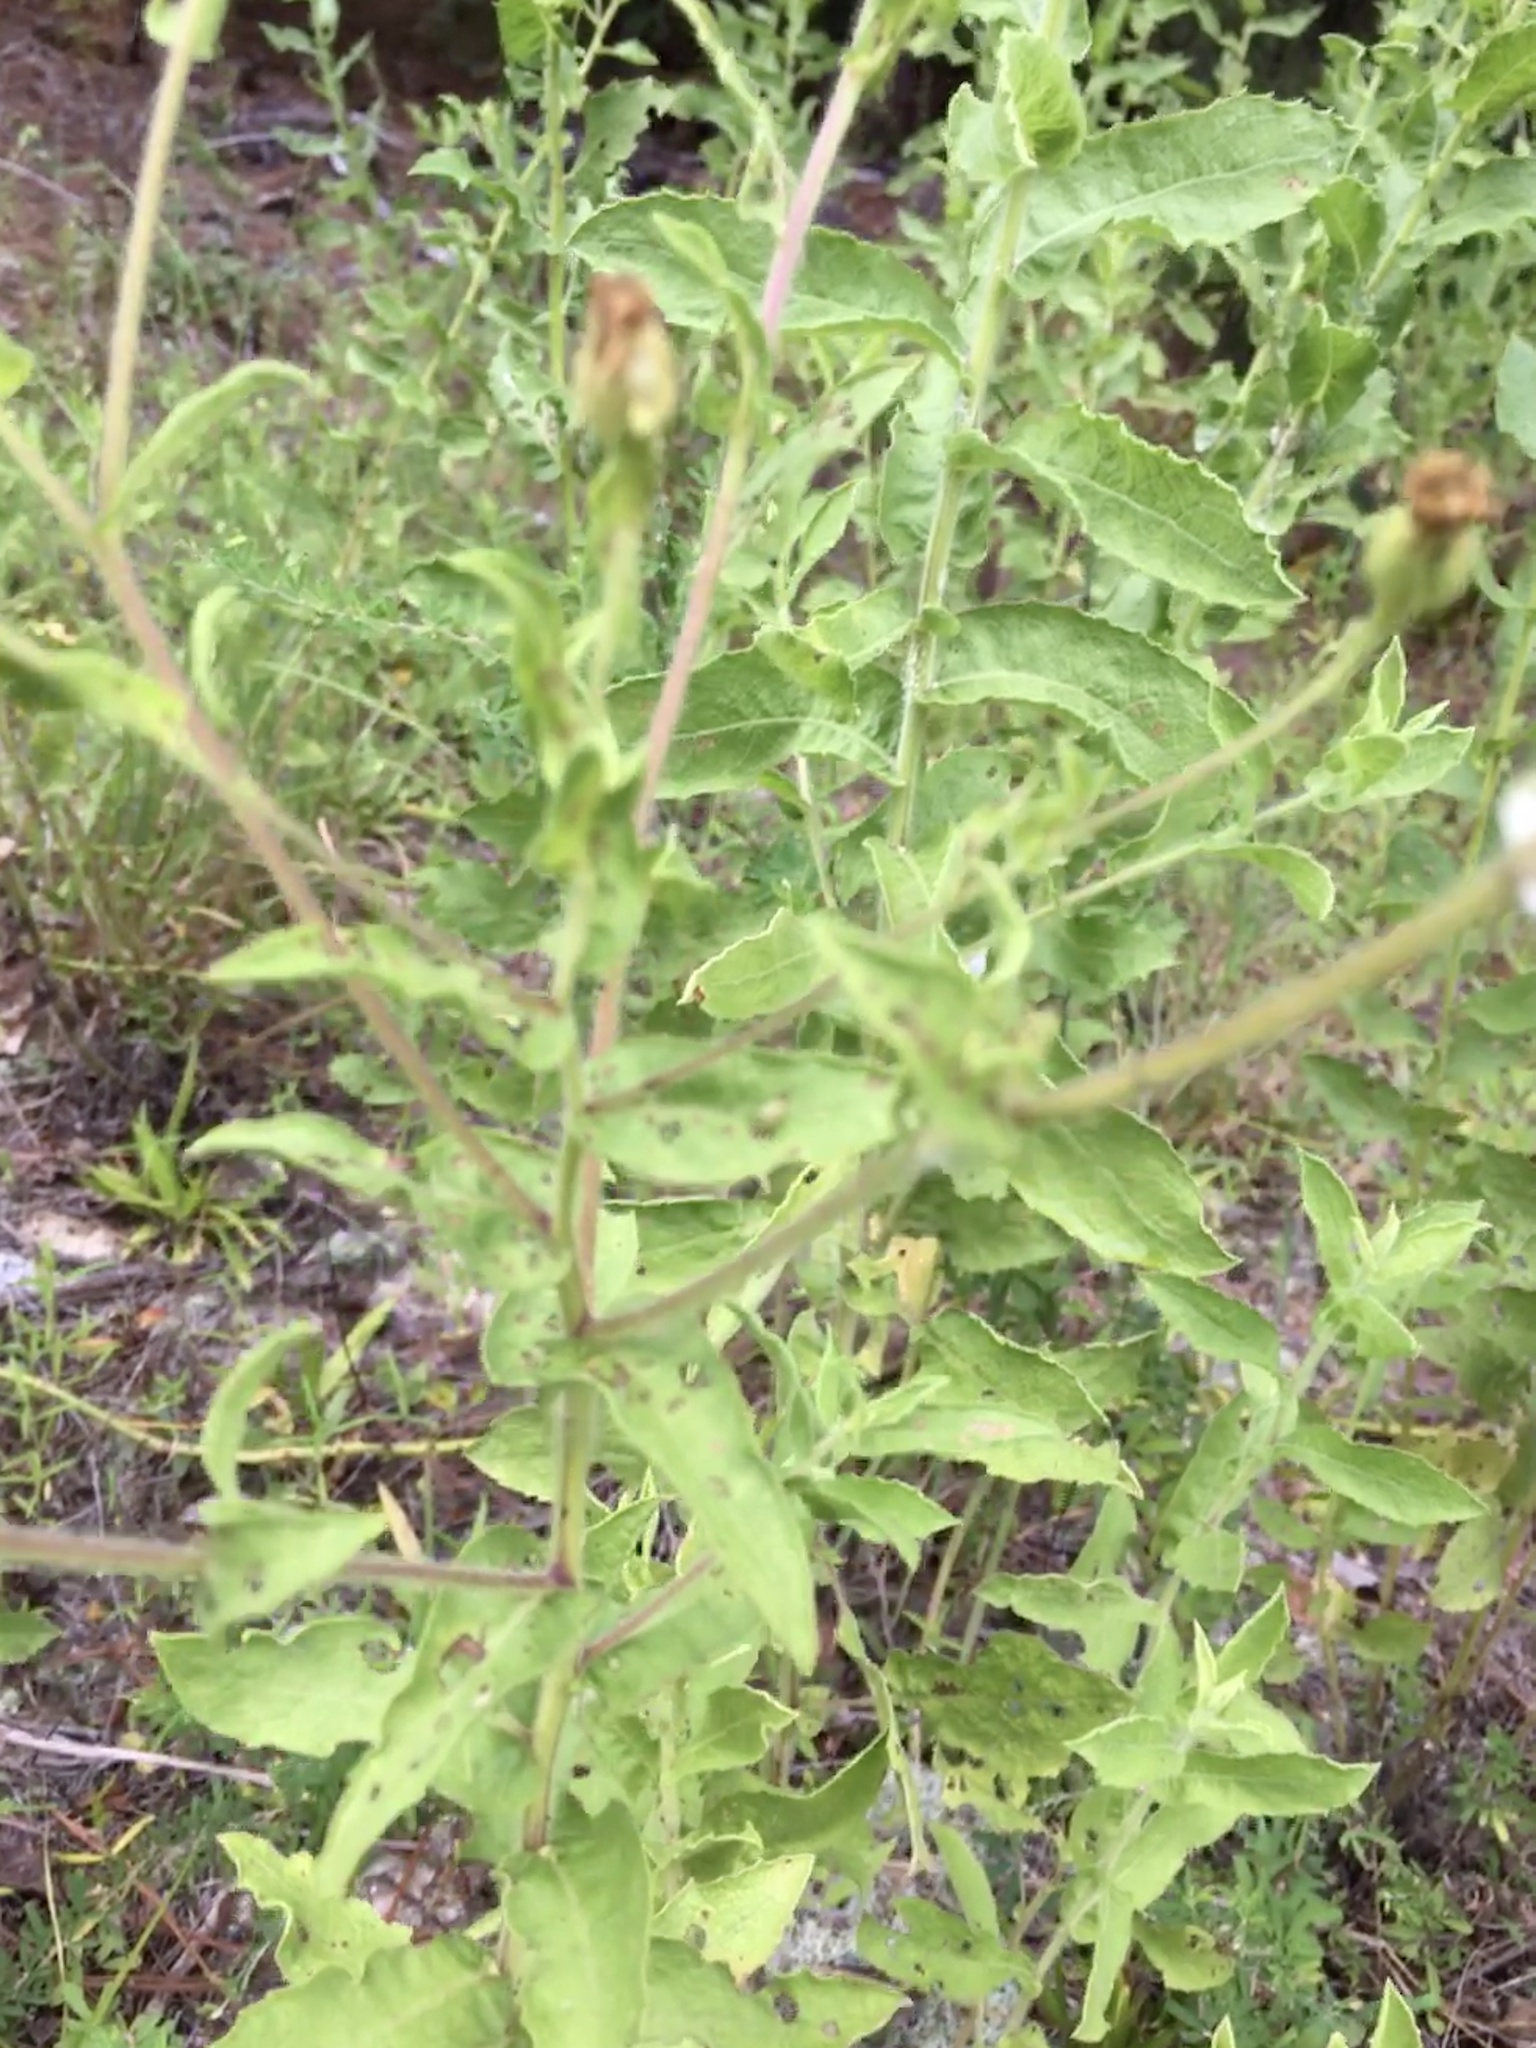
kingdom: Plantae
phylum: Tracheophyta
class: Magnoliopsida
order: Asterales
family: Asteraceae
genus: Heterotheca
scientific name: Heterotheca subaxillaris
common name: Camphorweed
